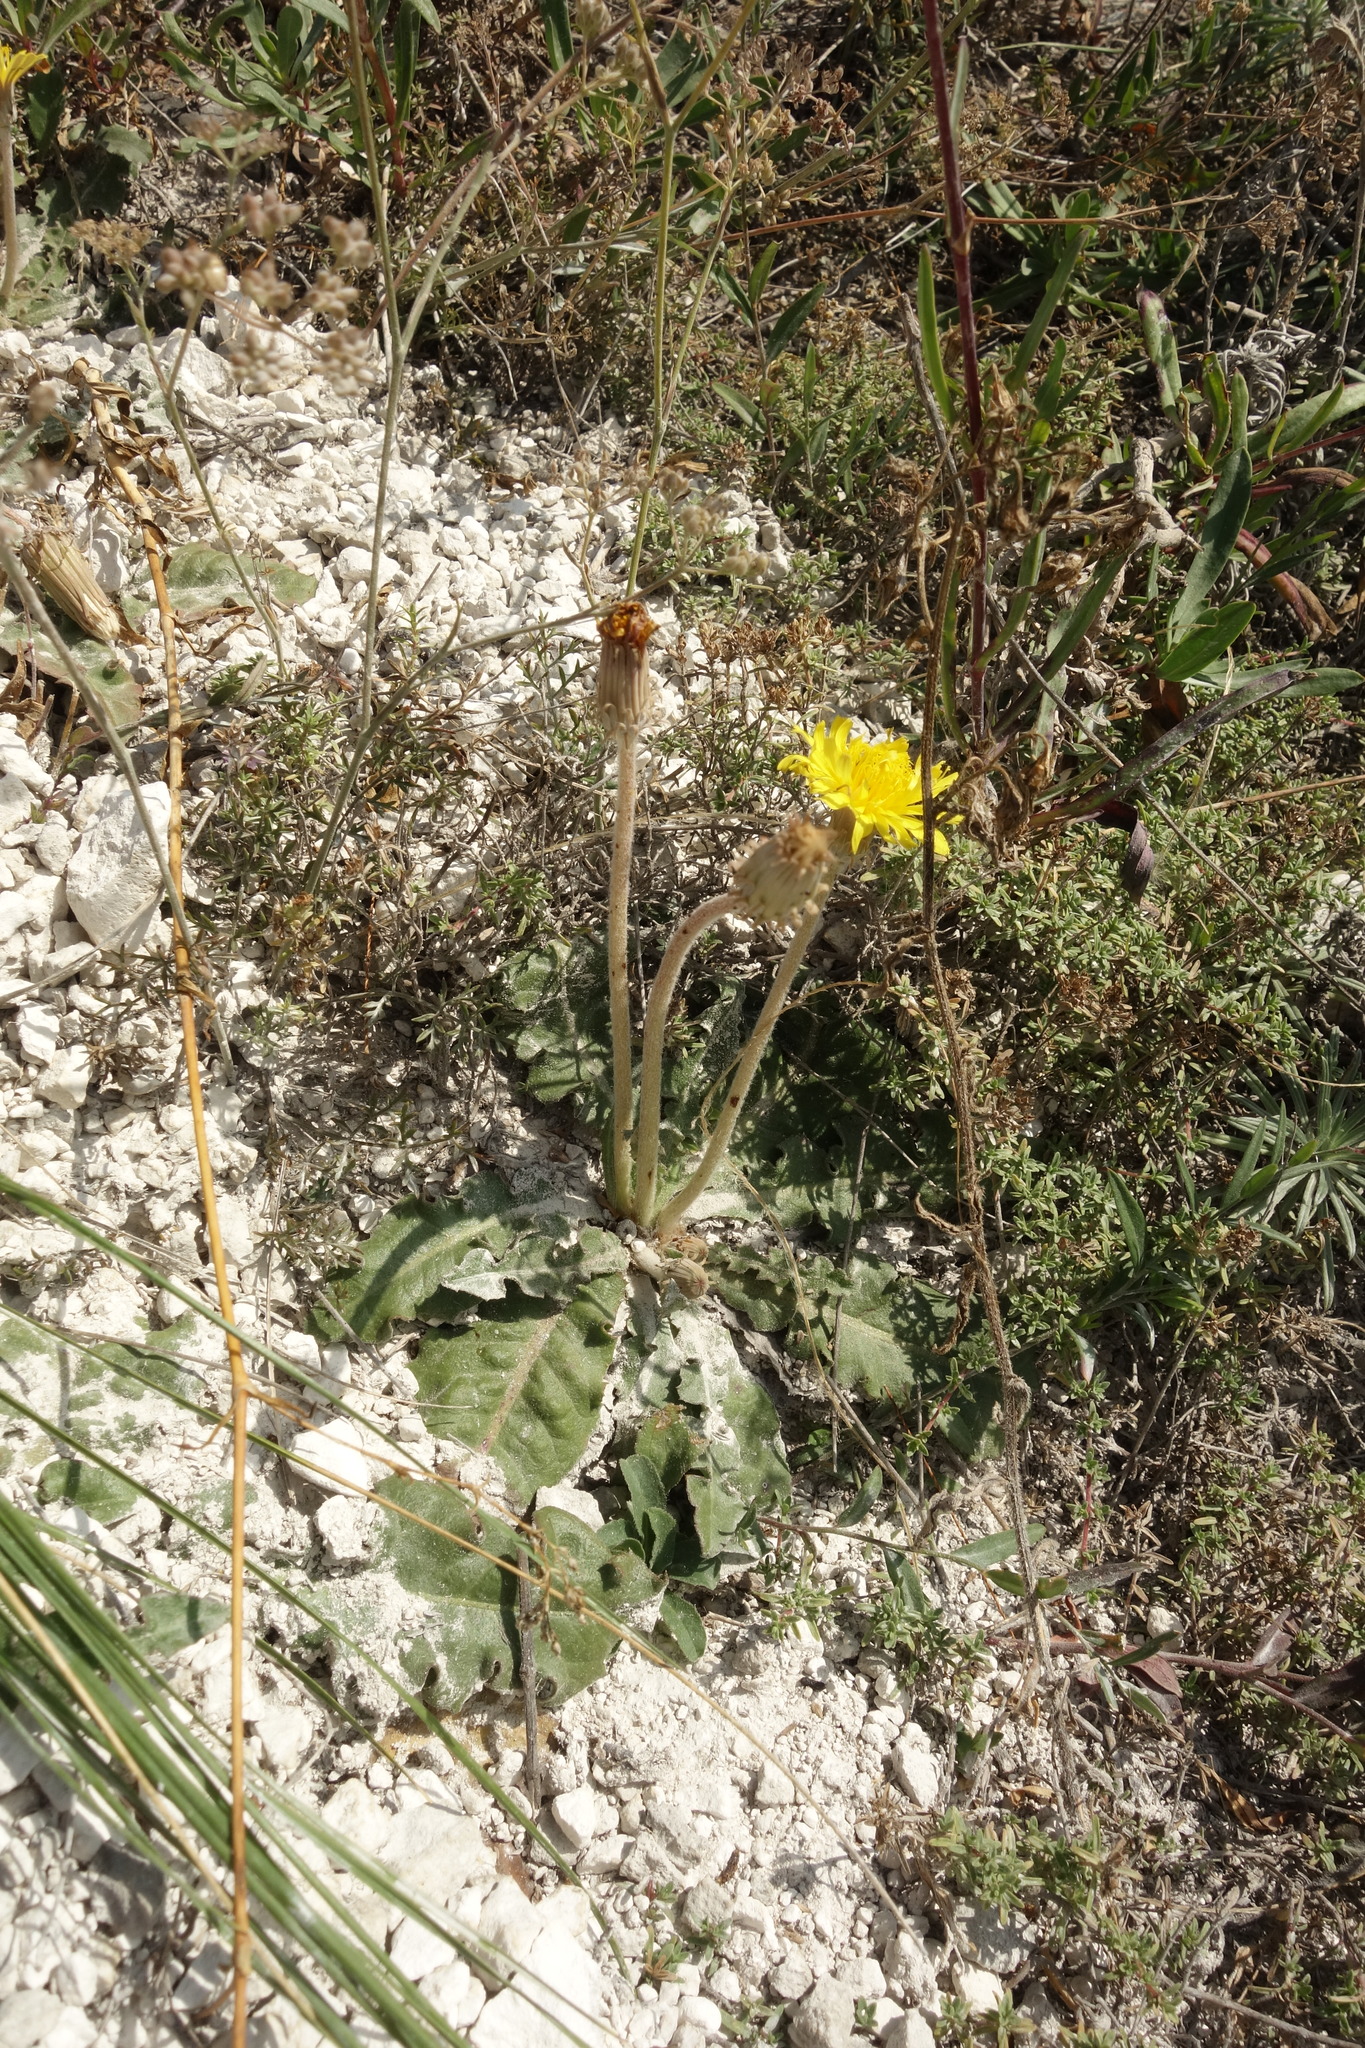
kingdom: Plantae
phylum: Tracheophyta
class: Magnoliopsida
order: Asterales
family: Asteraceae
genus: Taraxacum
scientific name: Taraxacum serotinum
